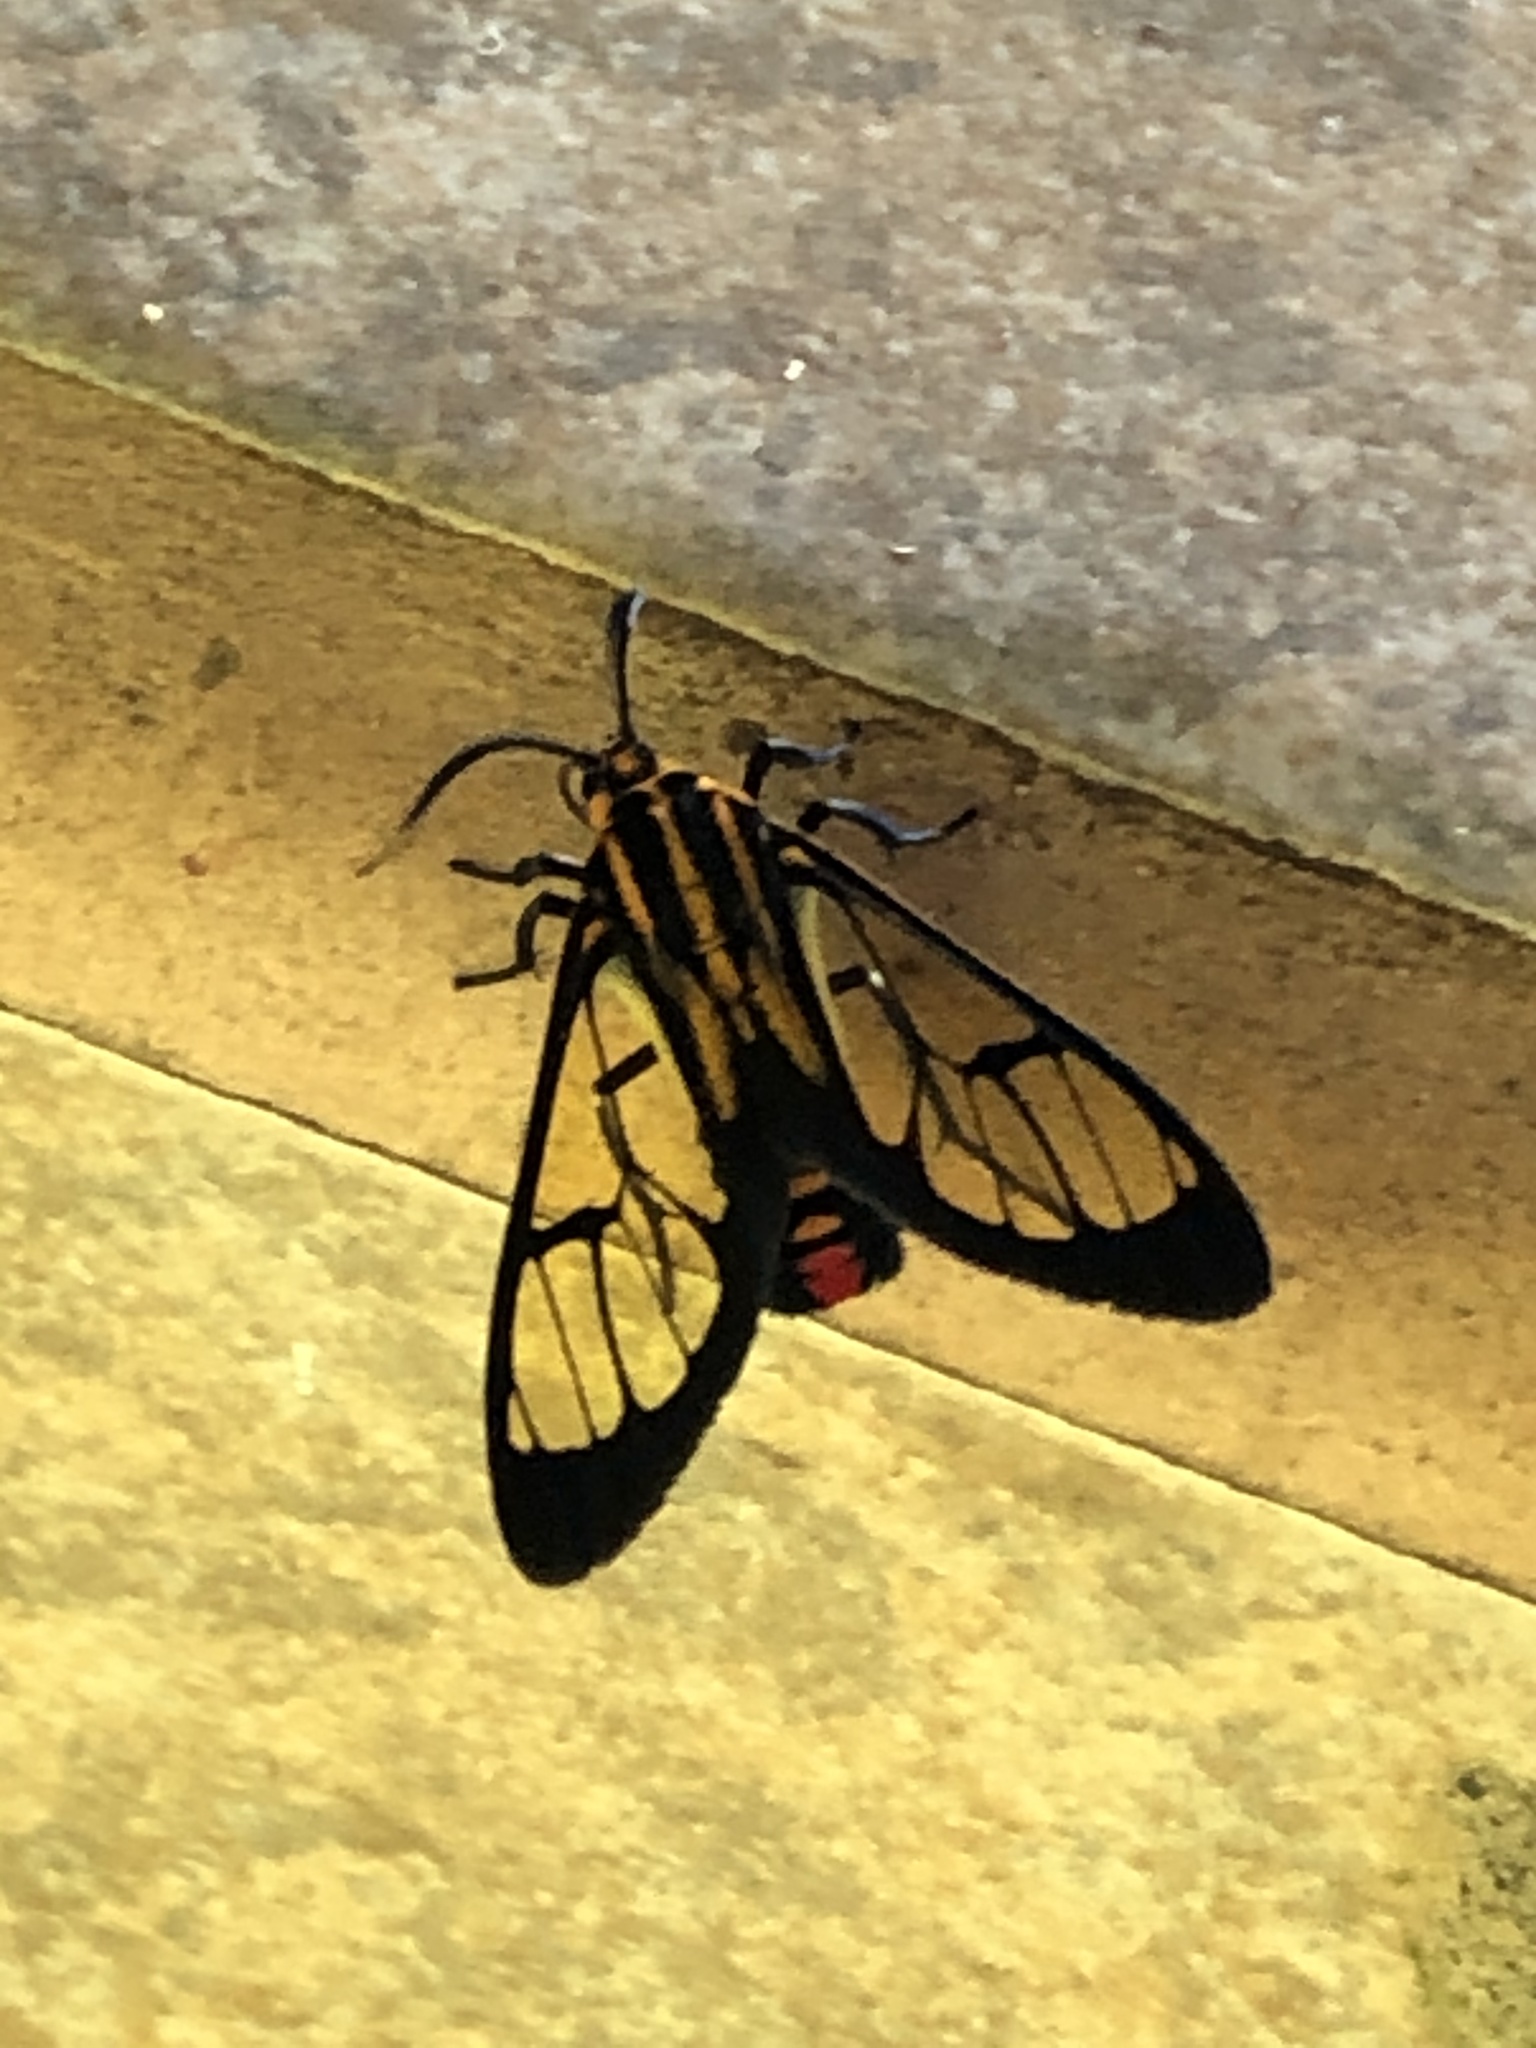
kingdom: Animalia
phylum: Arthropoda
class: Insecta
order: Lepidoptera
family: Erebidae
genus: Paraethria
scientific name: Paraethria flavosignata
